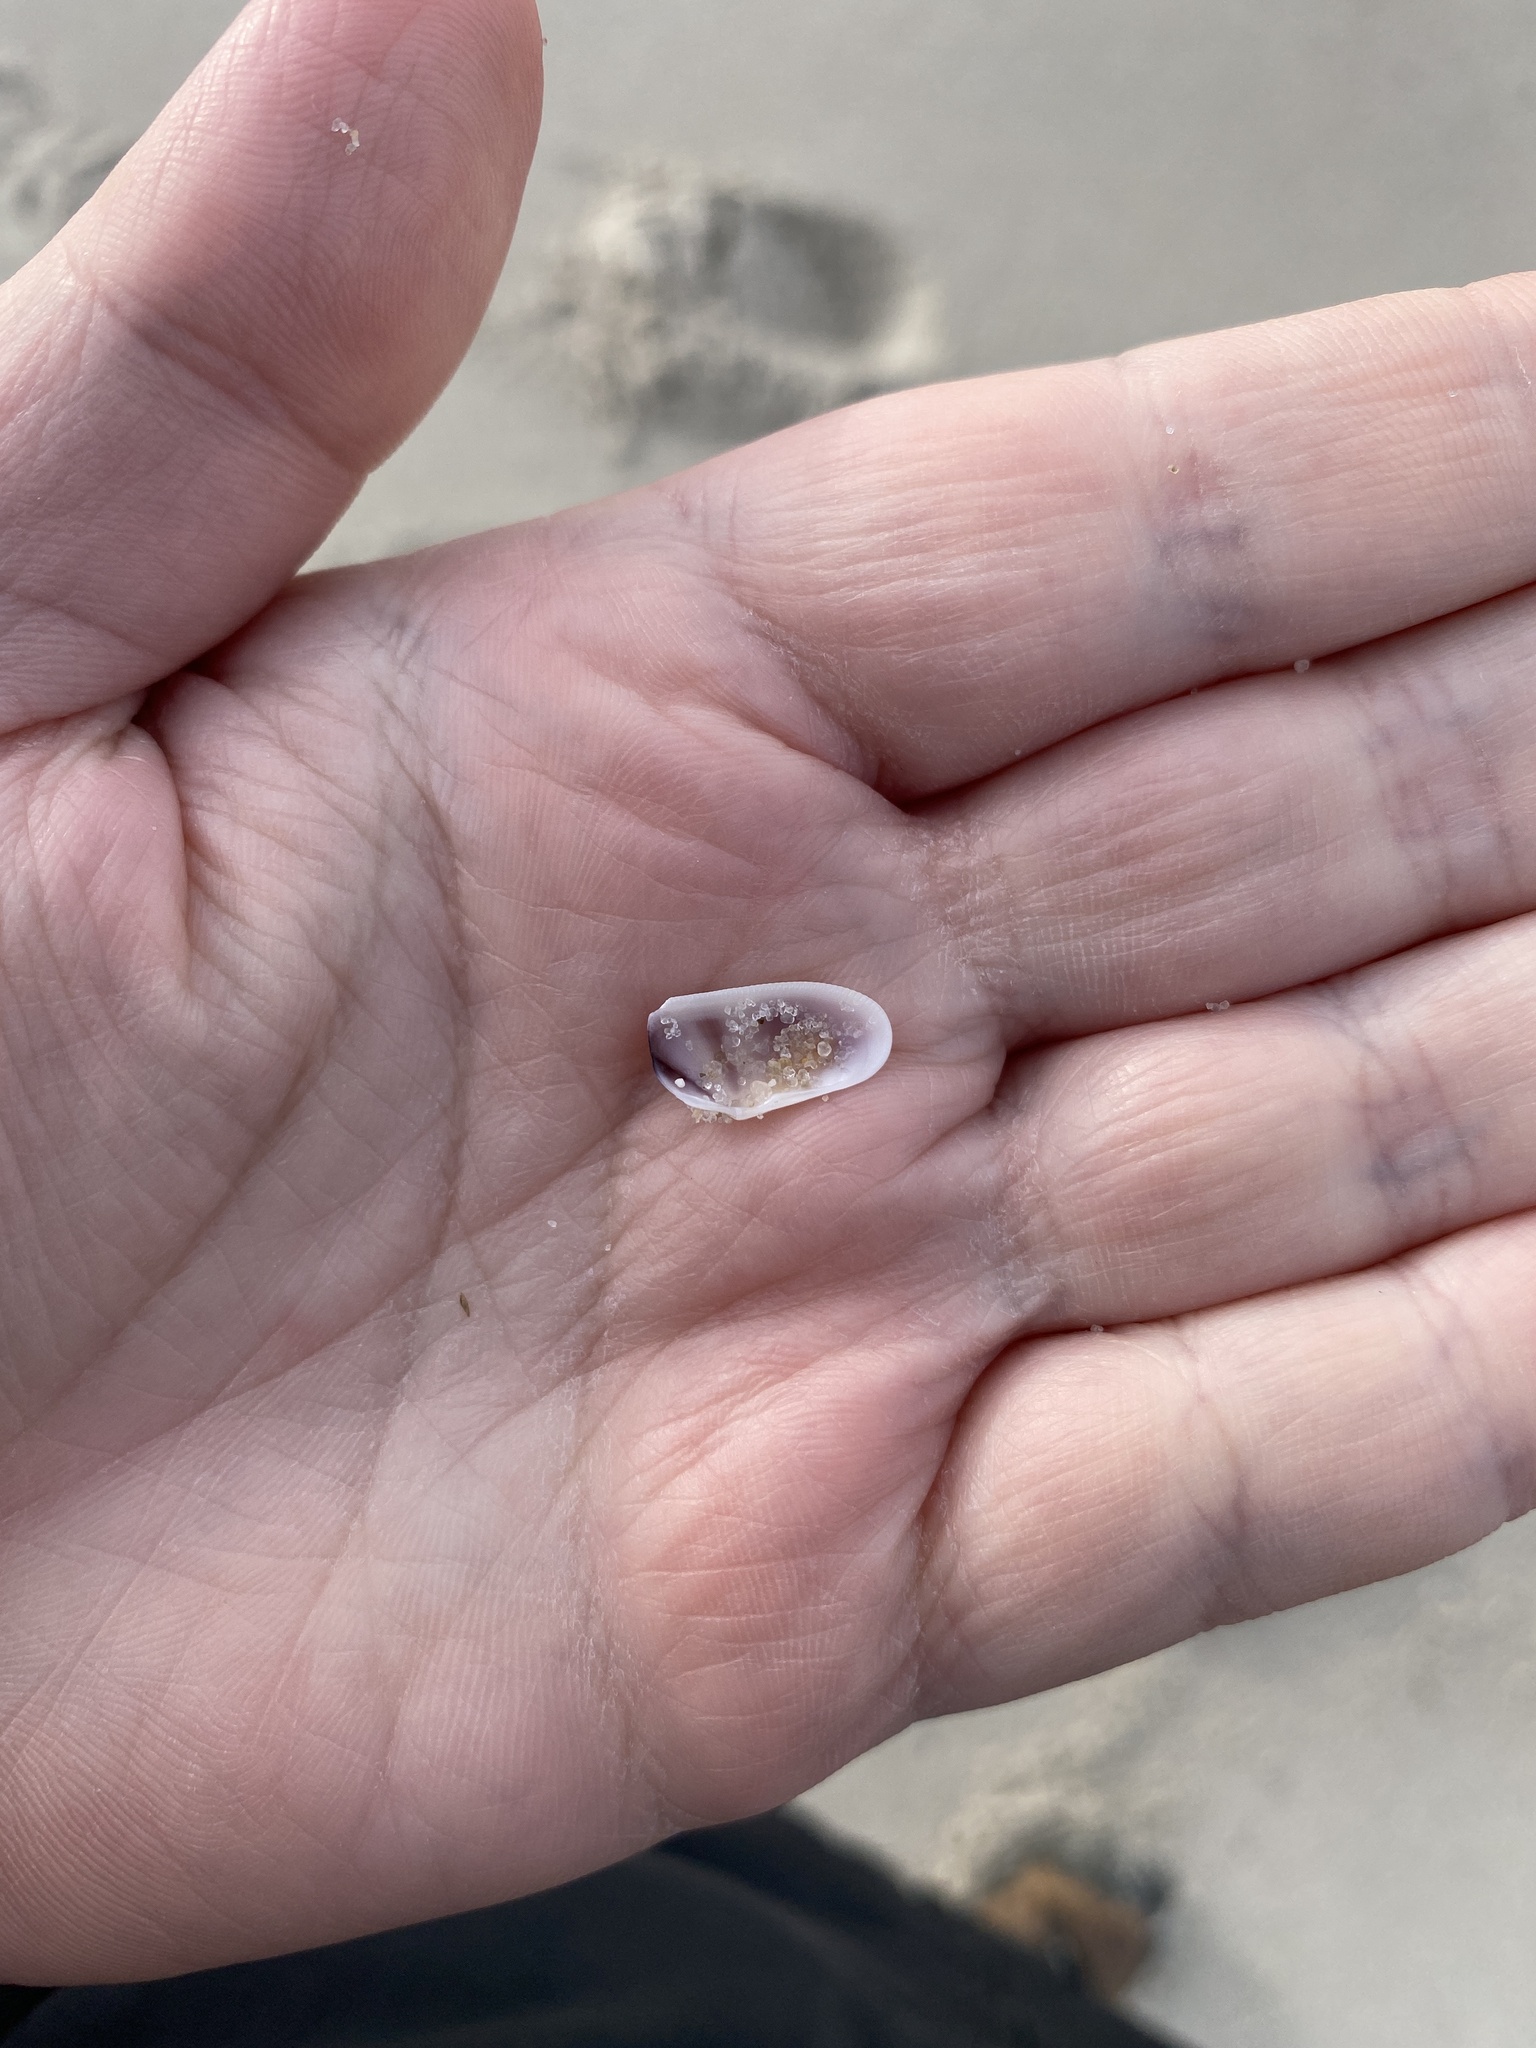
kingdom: Animalia
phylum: Mollusca
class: Bivalvia
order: Cardiida
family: Donacidae
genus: Donax
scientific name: Donax fossor
